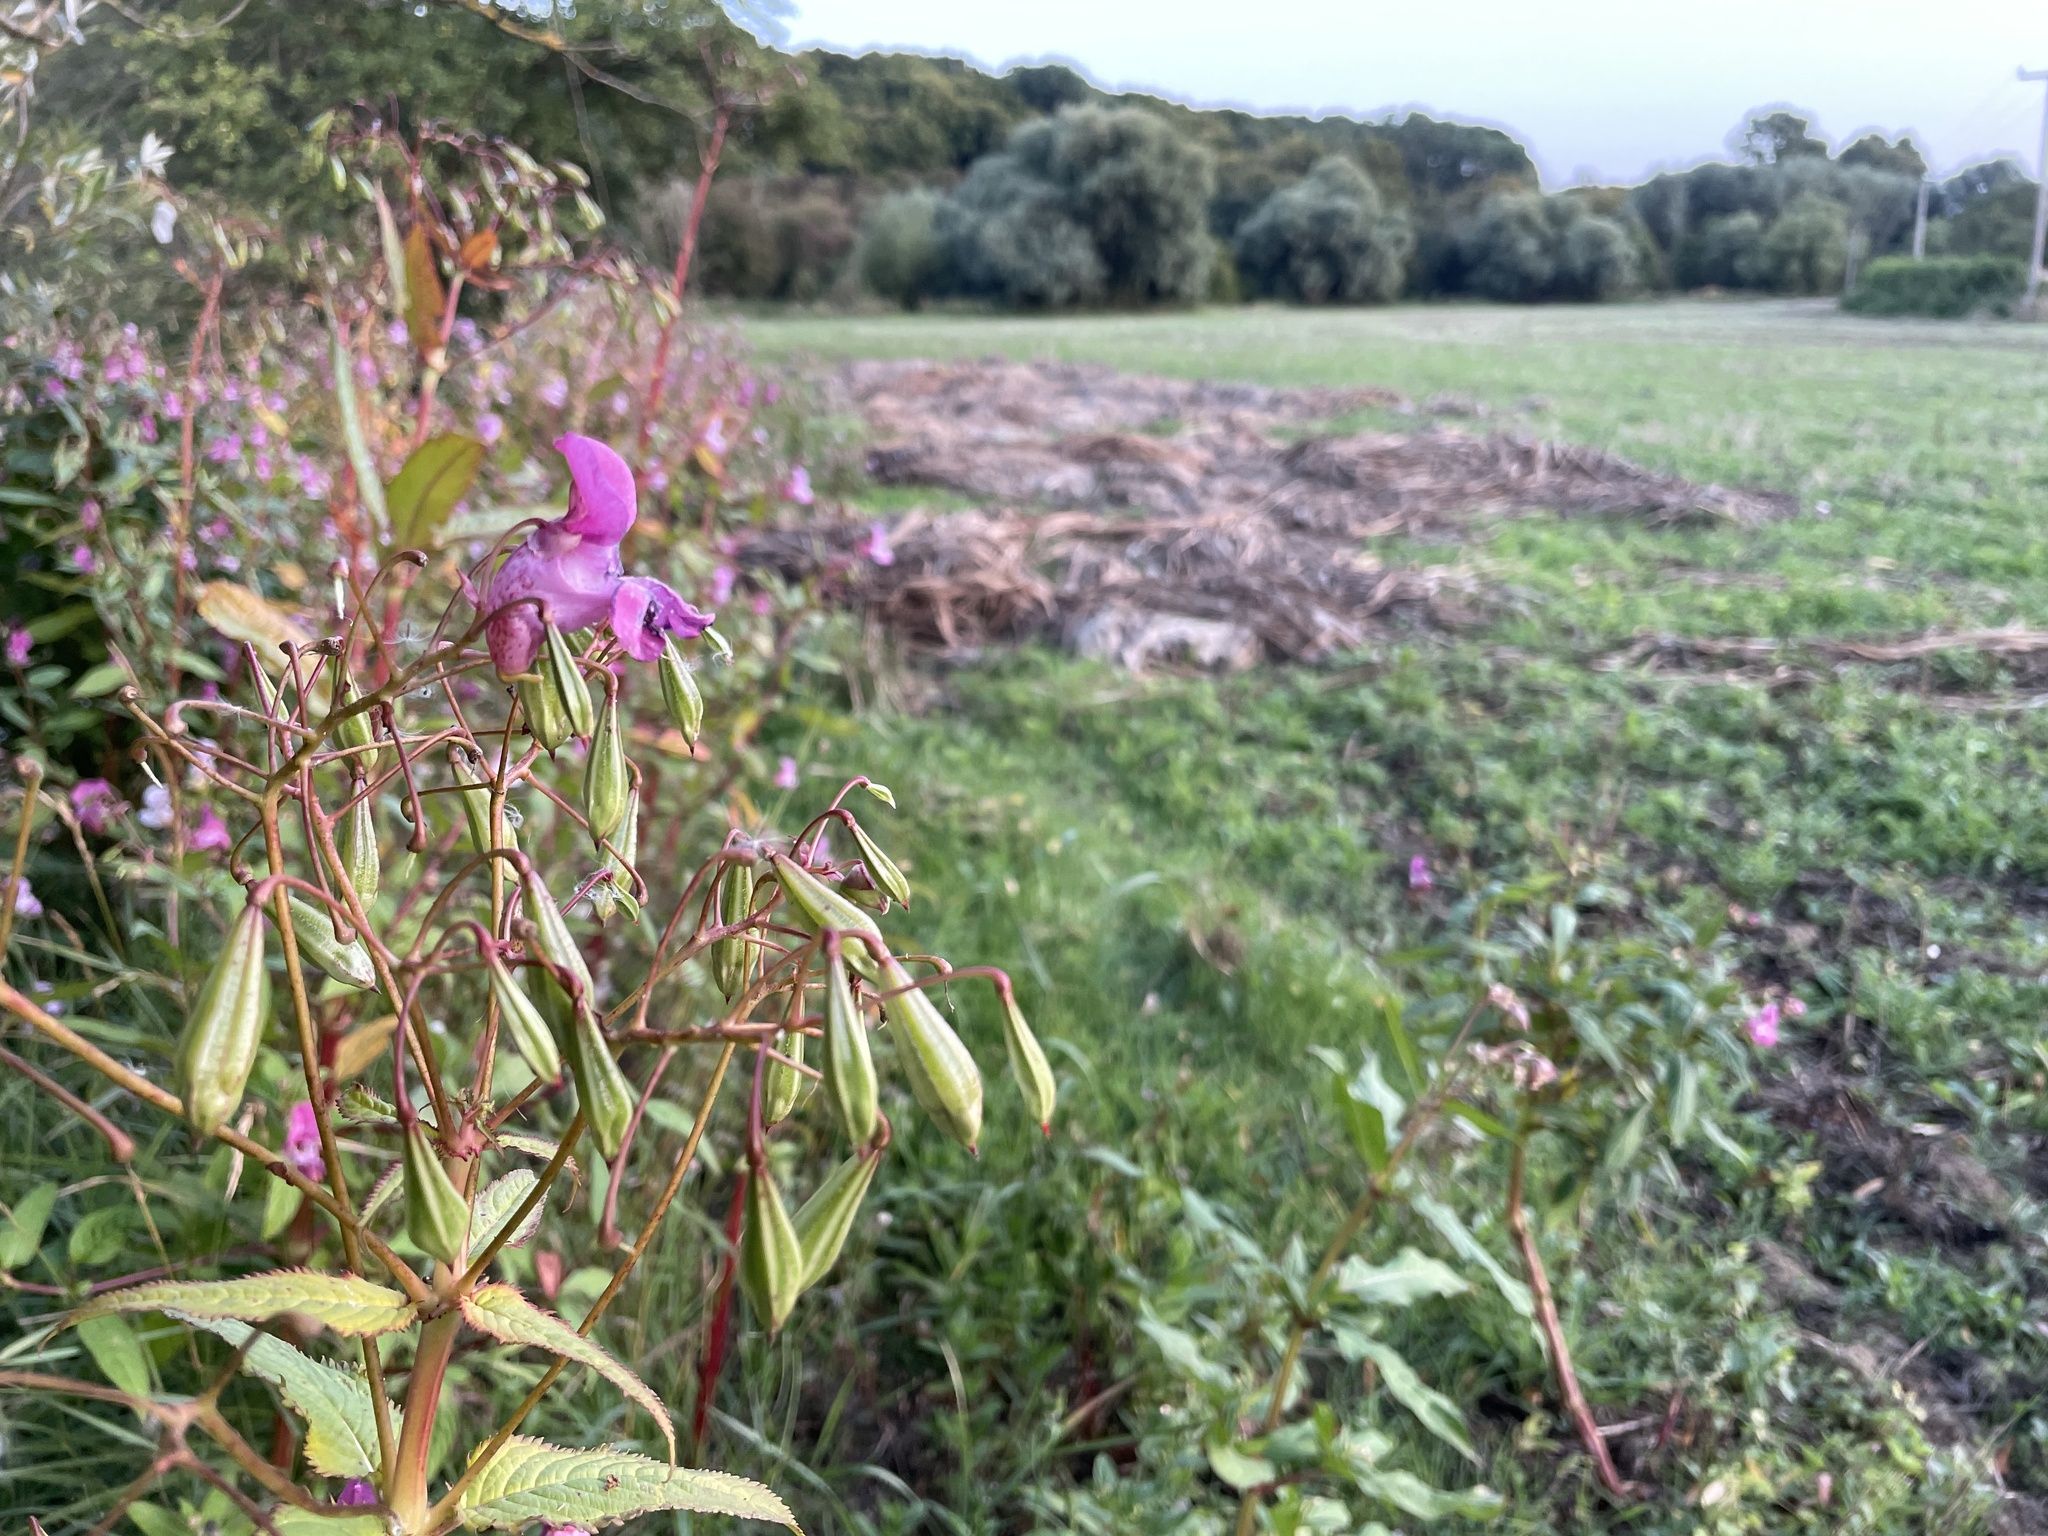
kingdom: Plantae
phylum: Tracheophyta
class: Magnoliopsida
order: Ericales
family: Balsaminaceae
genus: Impatiens
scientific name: Impatiens glandulifera
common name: Himalayan balsam
